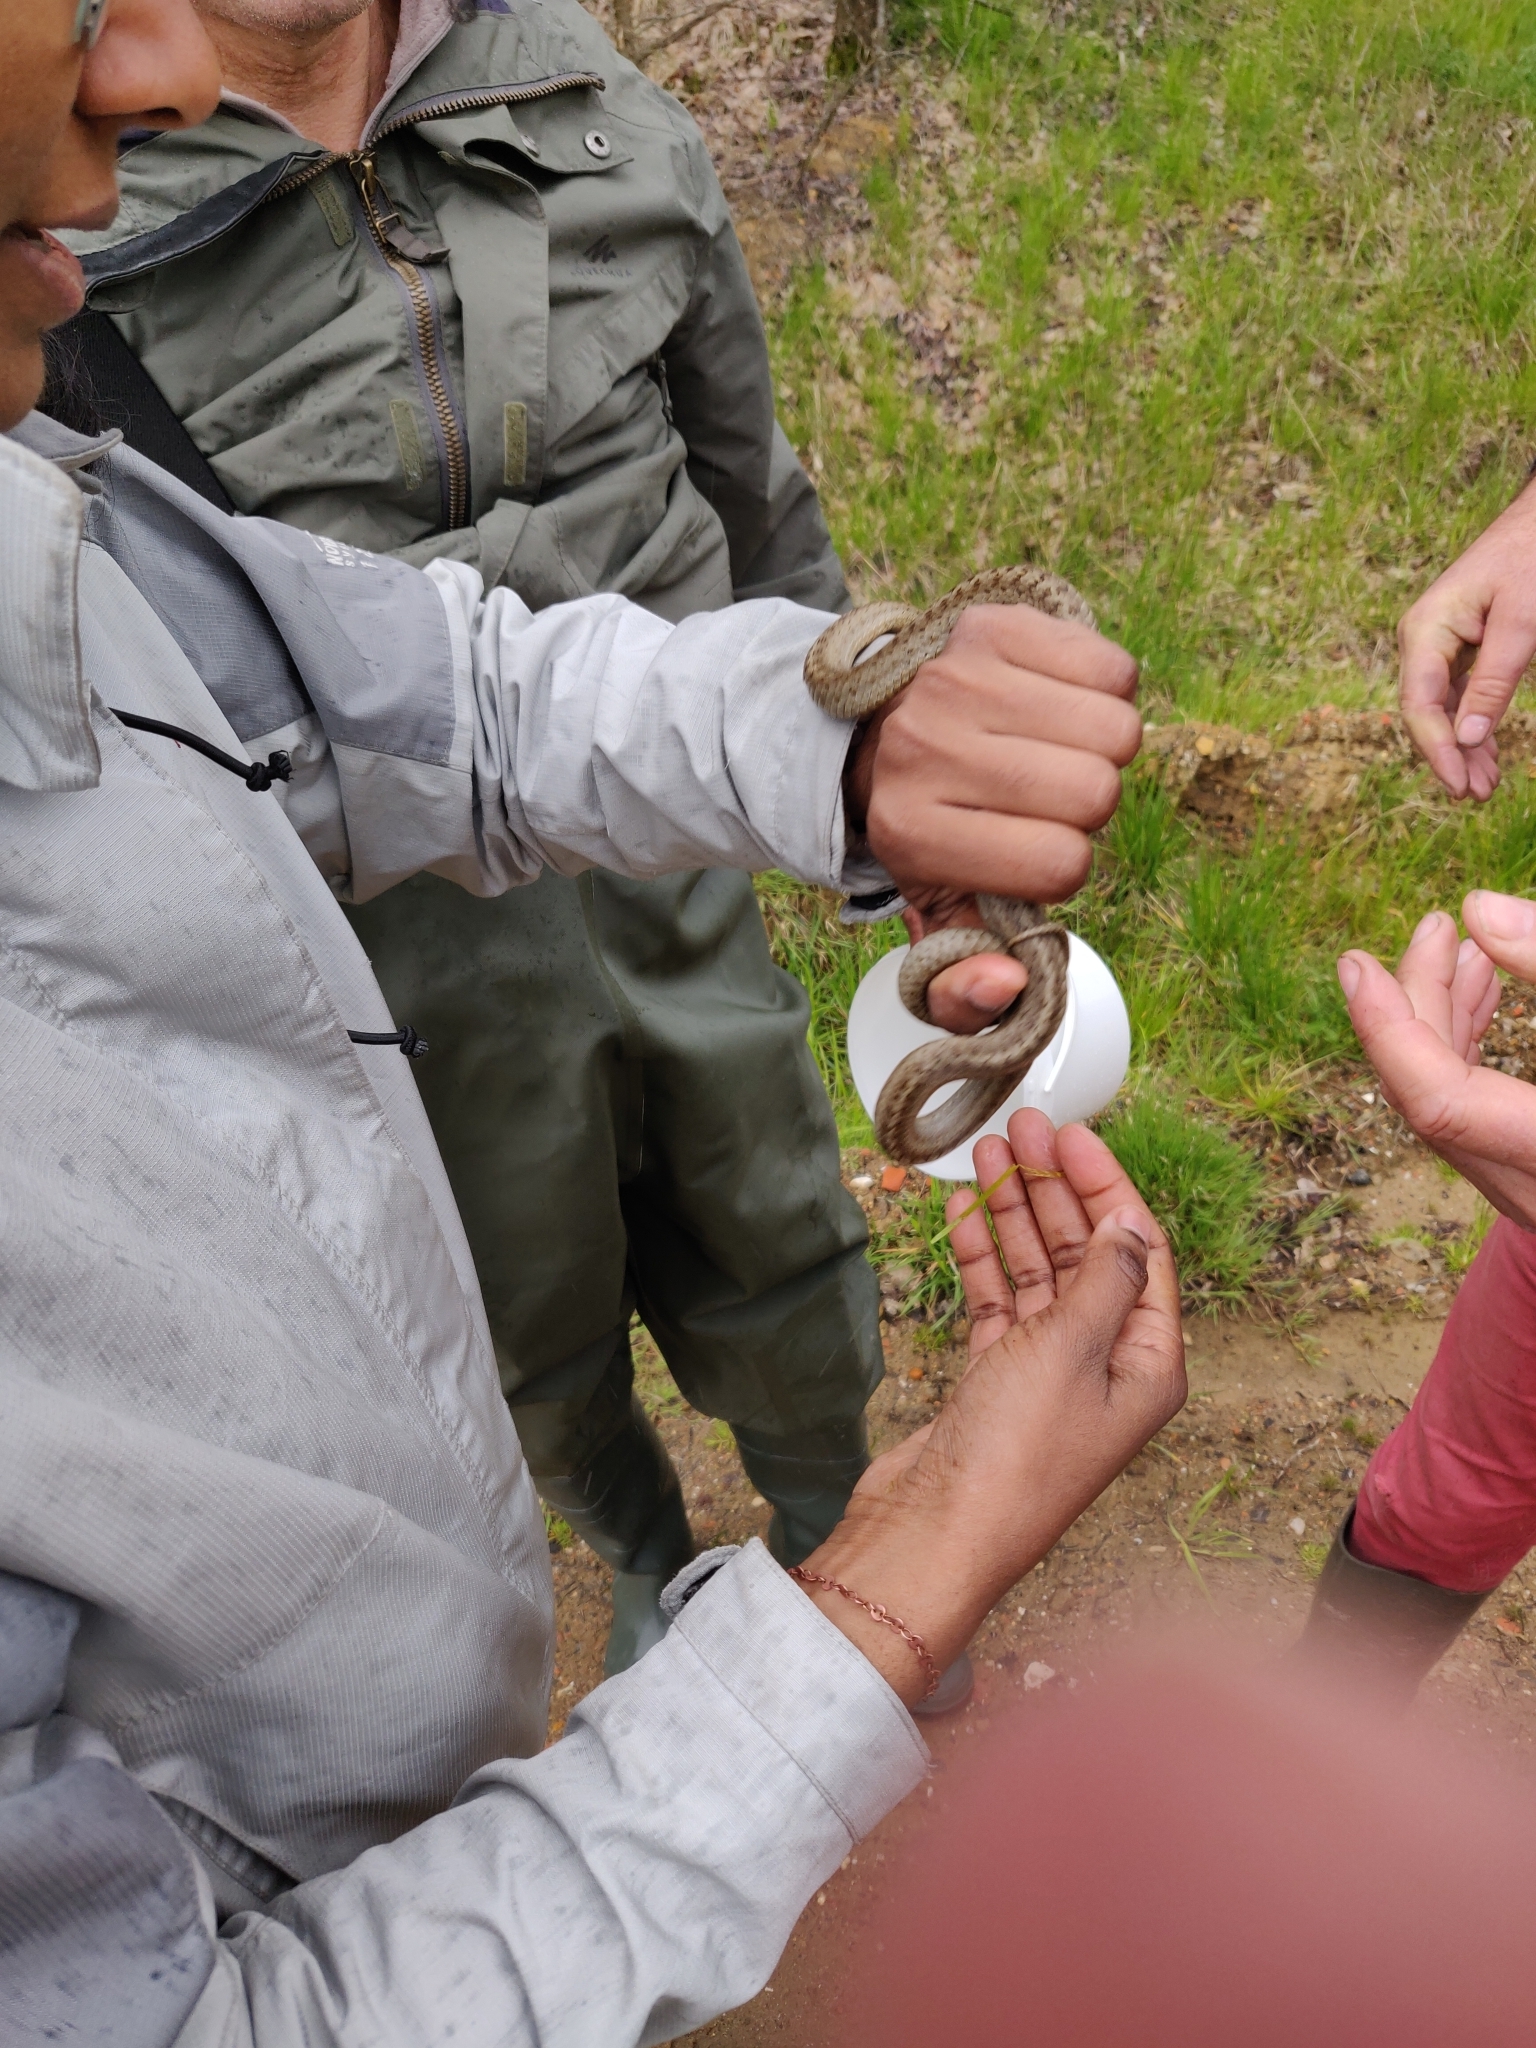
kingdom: Animalia
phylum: Chordata
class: Squamata
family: Colubridae
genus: Coronella
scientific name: Coronella austriaca
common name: Smooth snake
